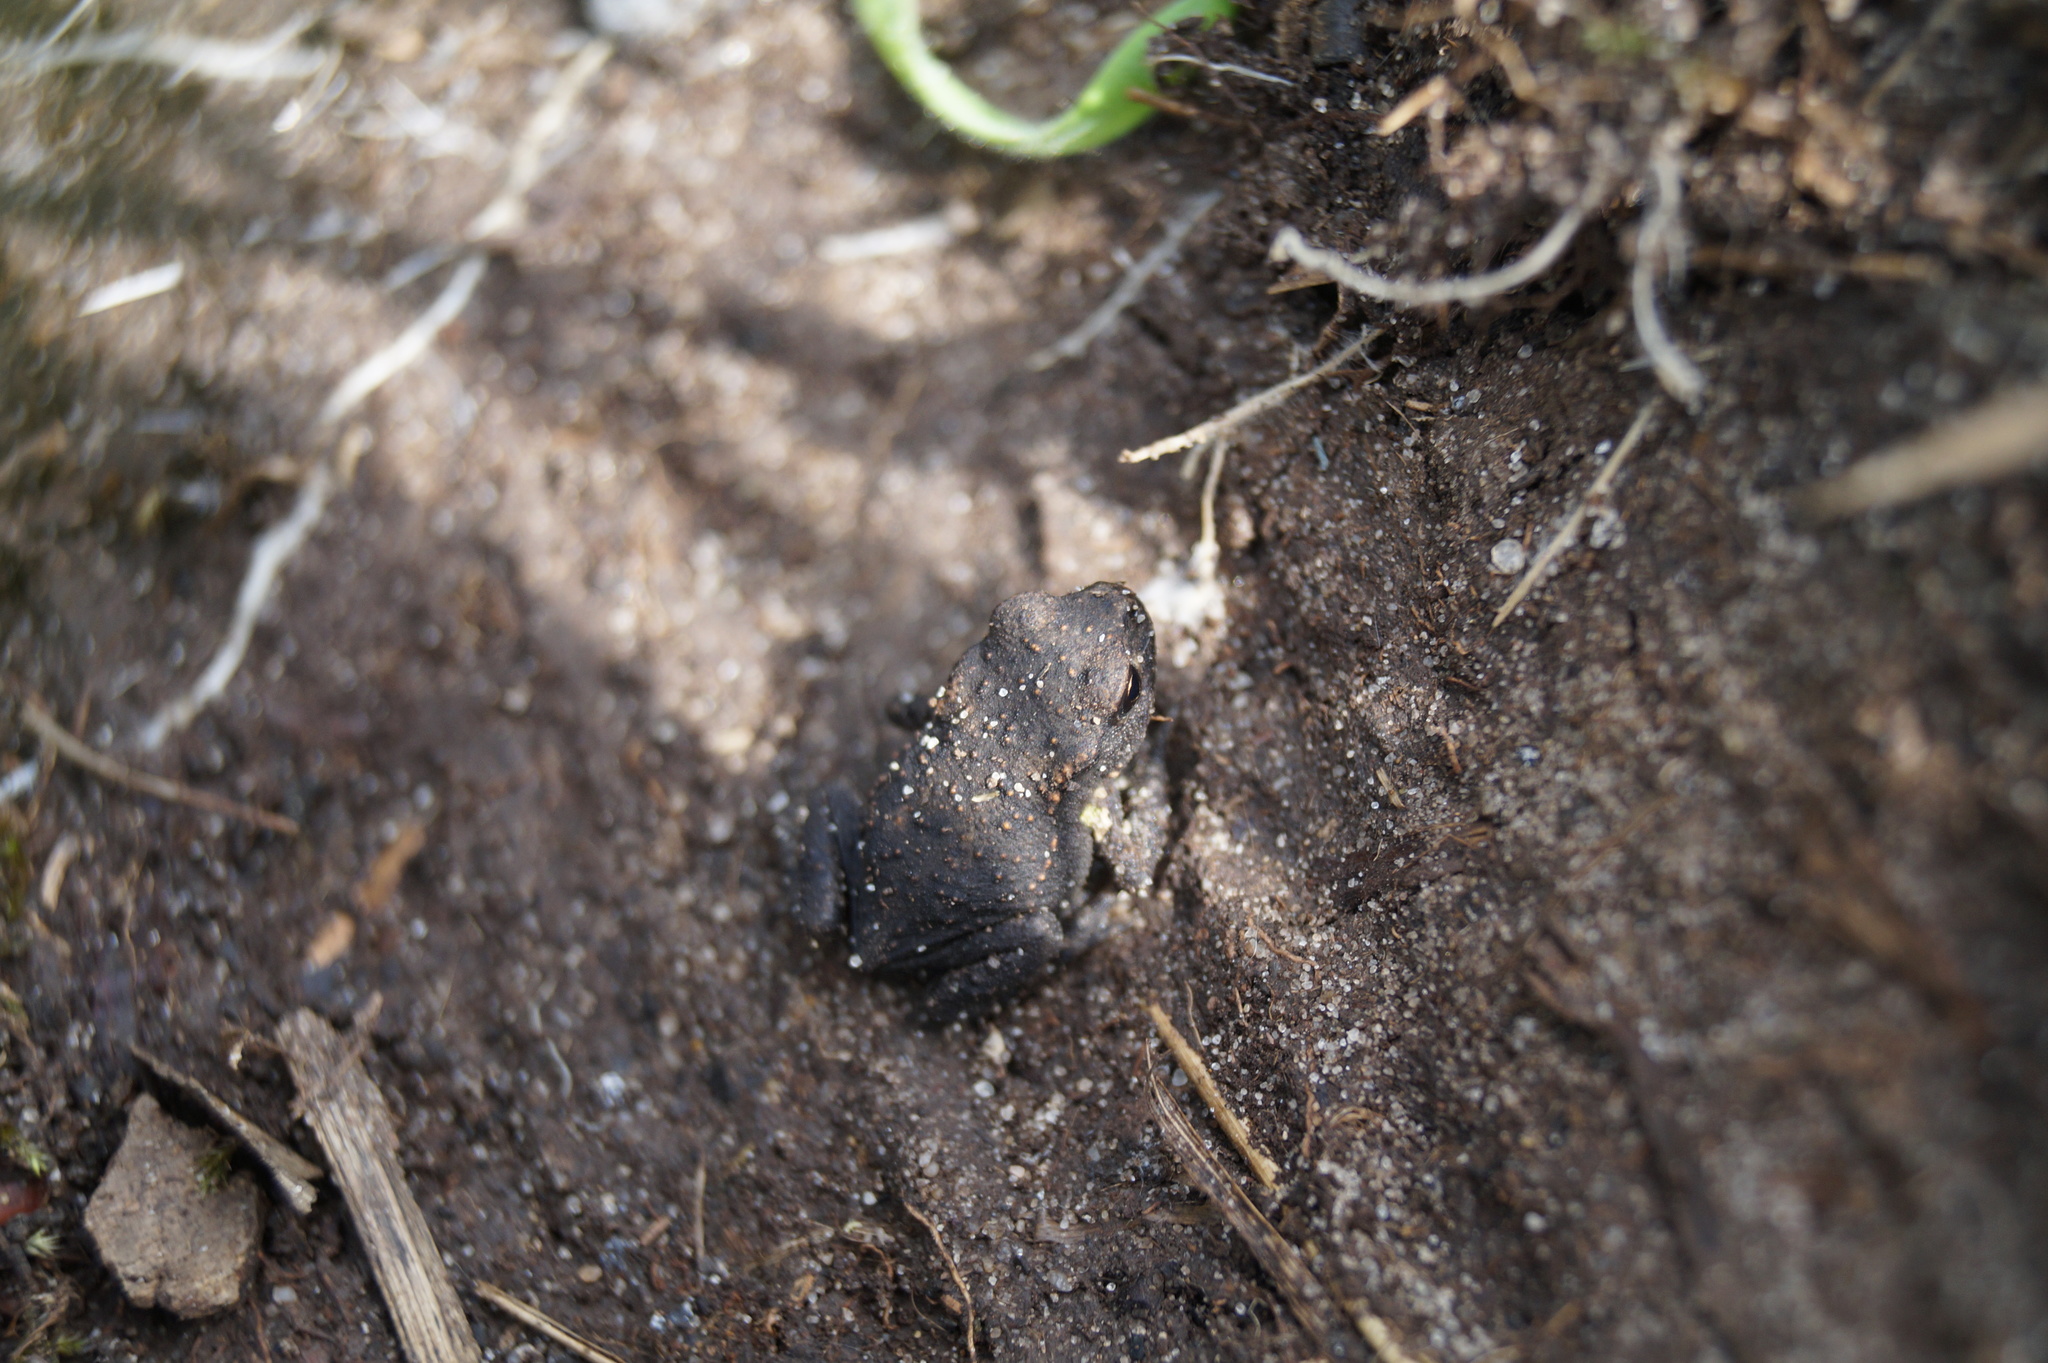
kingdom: Animalia
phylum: Chordata
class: Amphibia
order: Anura
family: Bufonidae
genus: Bufo
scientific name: Bufo bufo
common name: Common toad
